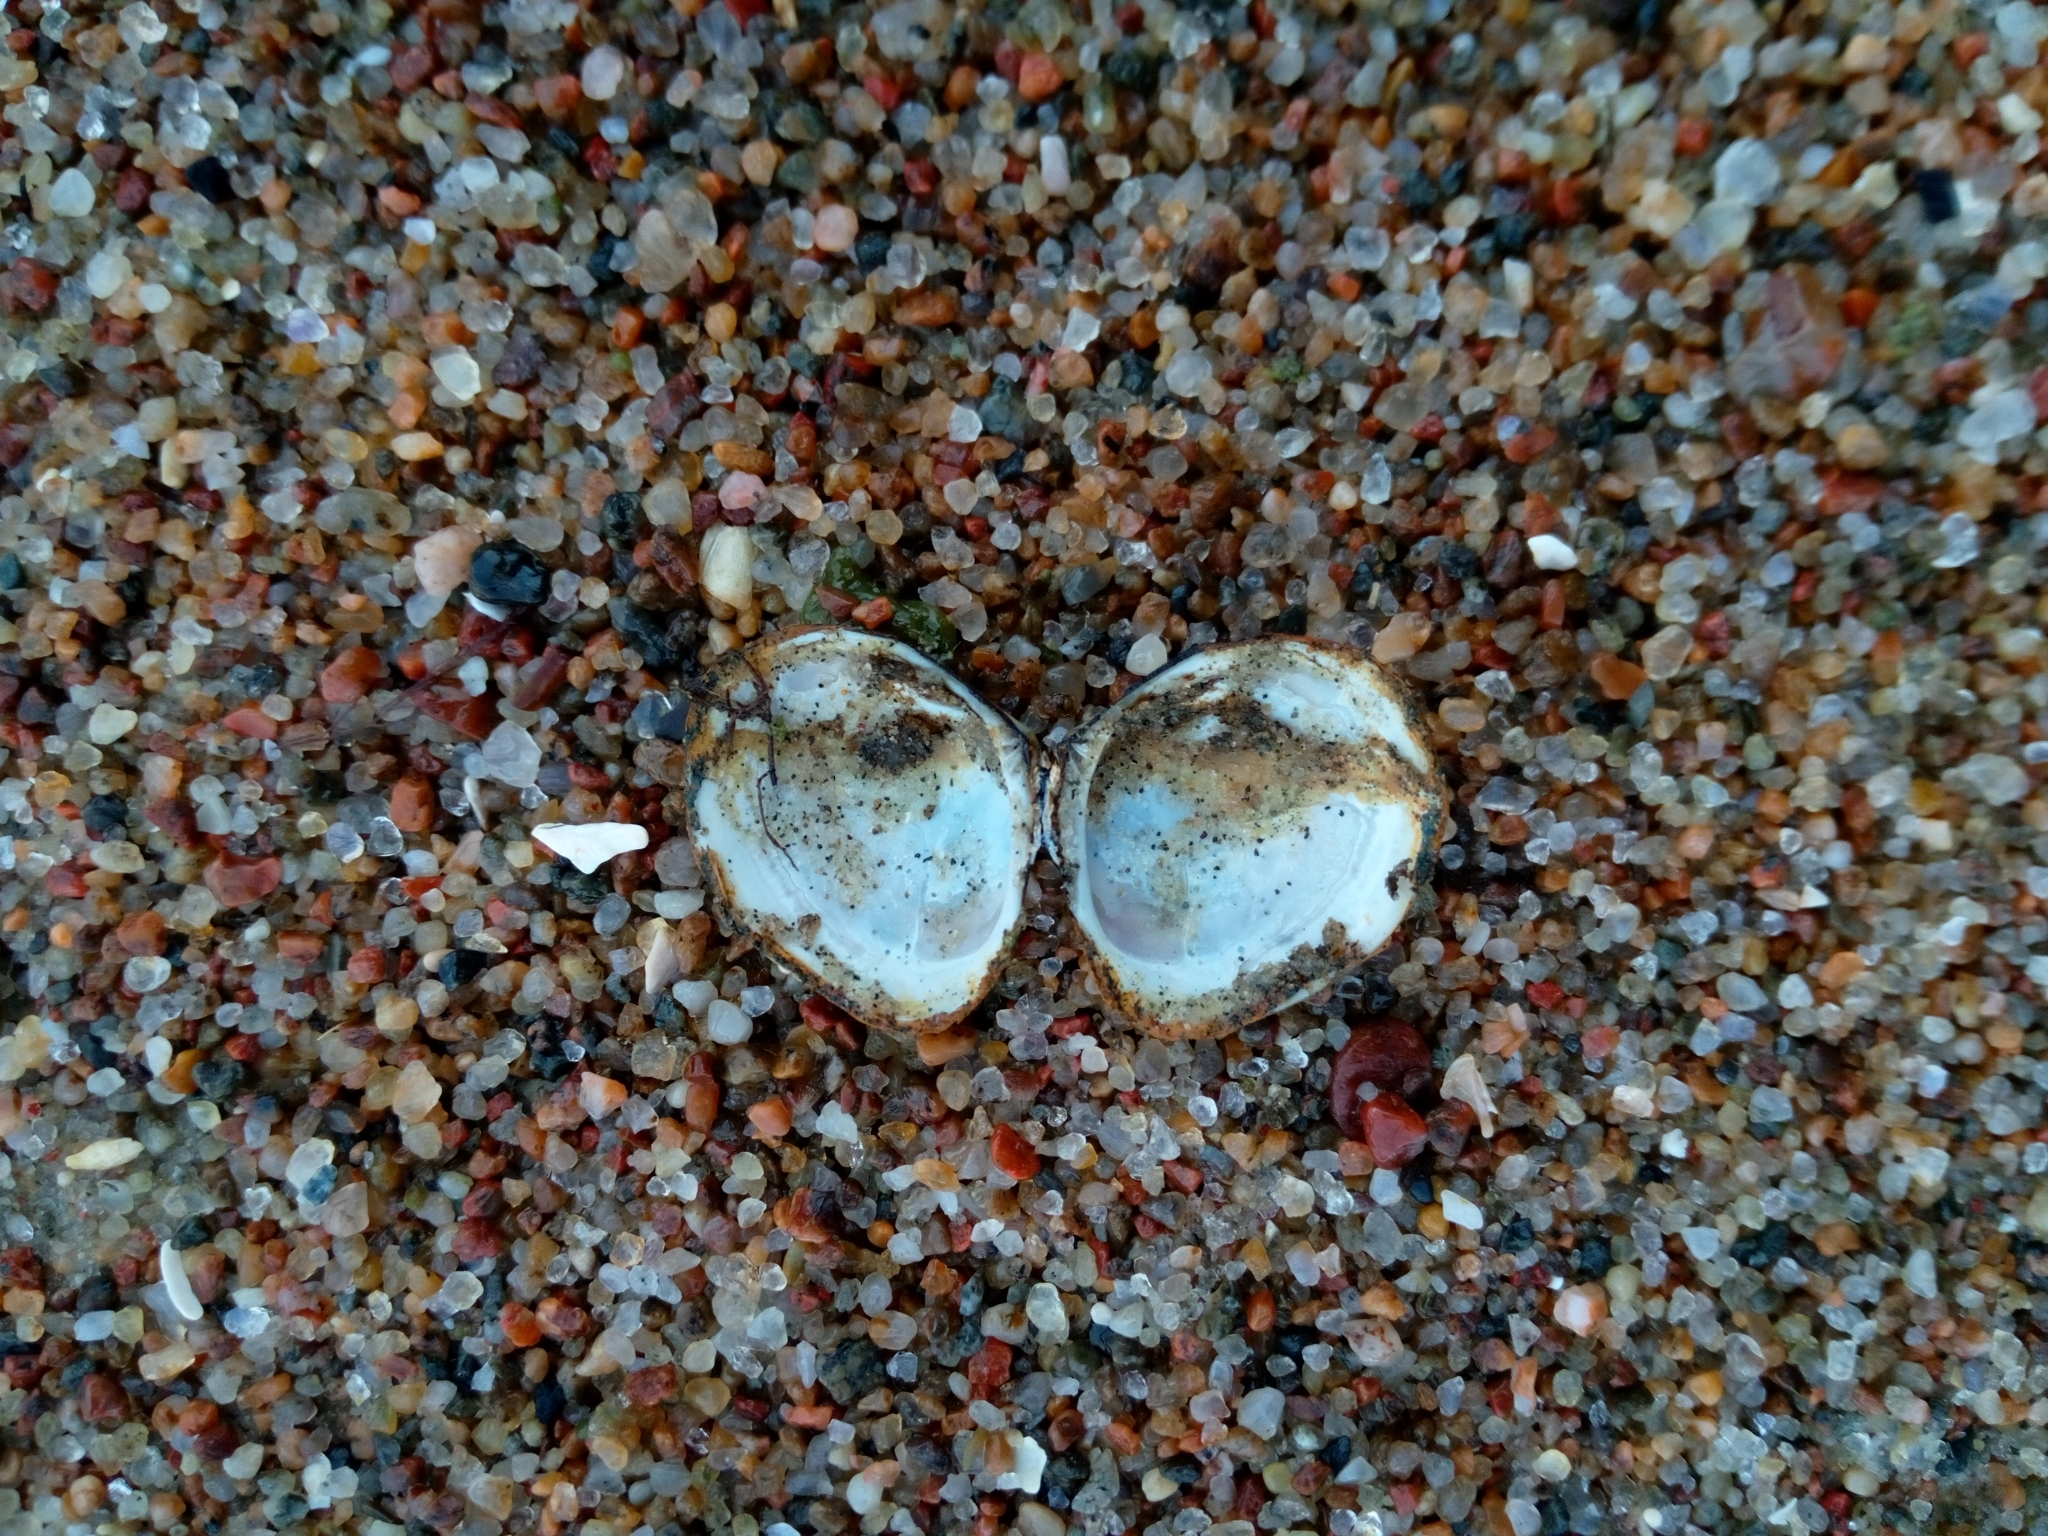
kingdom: Animalia
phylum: Mollusca
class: Bivalvia
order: Cardiida
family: Tellinidae
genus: Macoma
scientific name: Macoma balthica
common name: Baltic tellin
